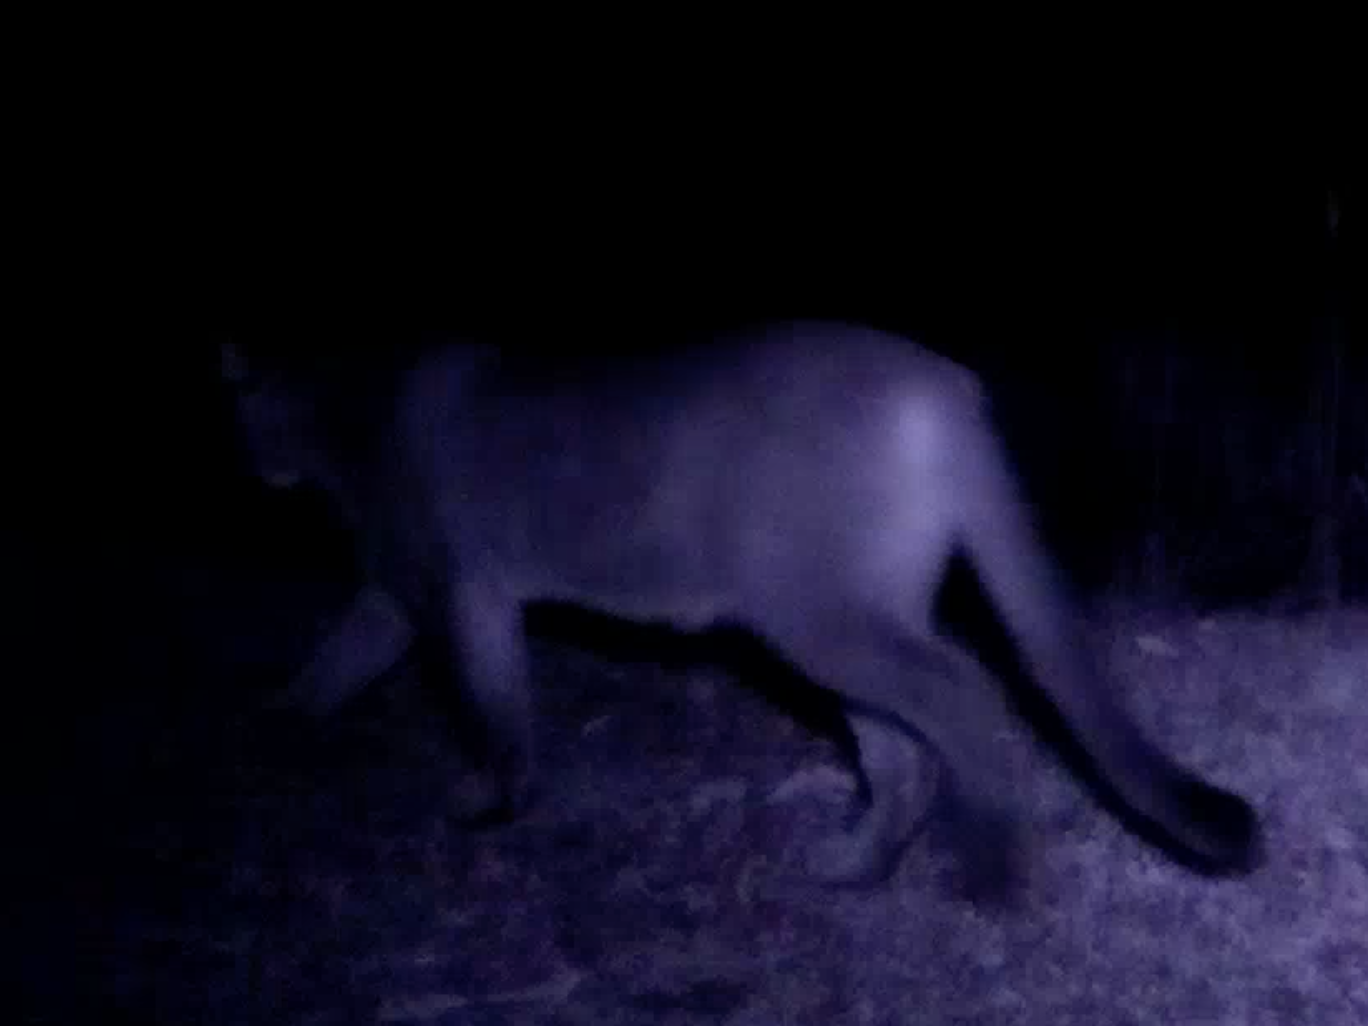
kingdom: Animalia
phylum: Chordata
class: Mammalia
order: Carnivora
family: Felidae
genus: Puma
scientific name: Puma concolor
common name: Puma
